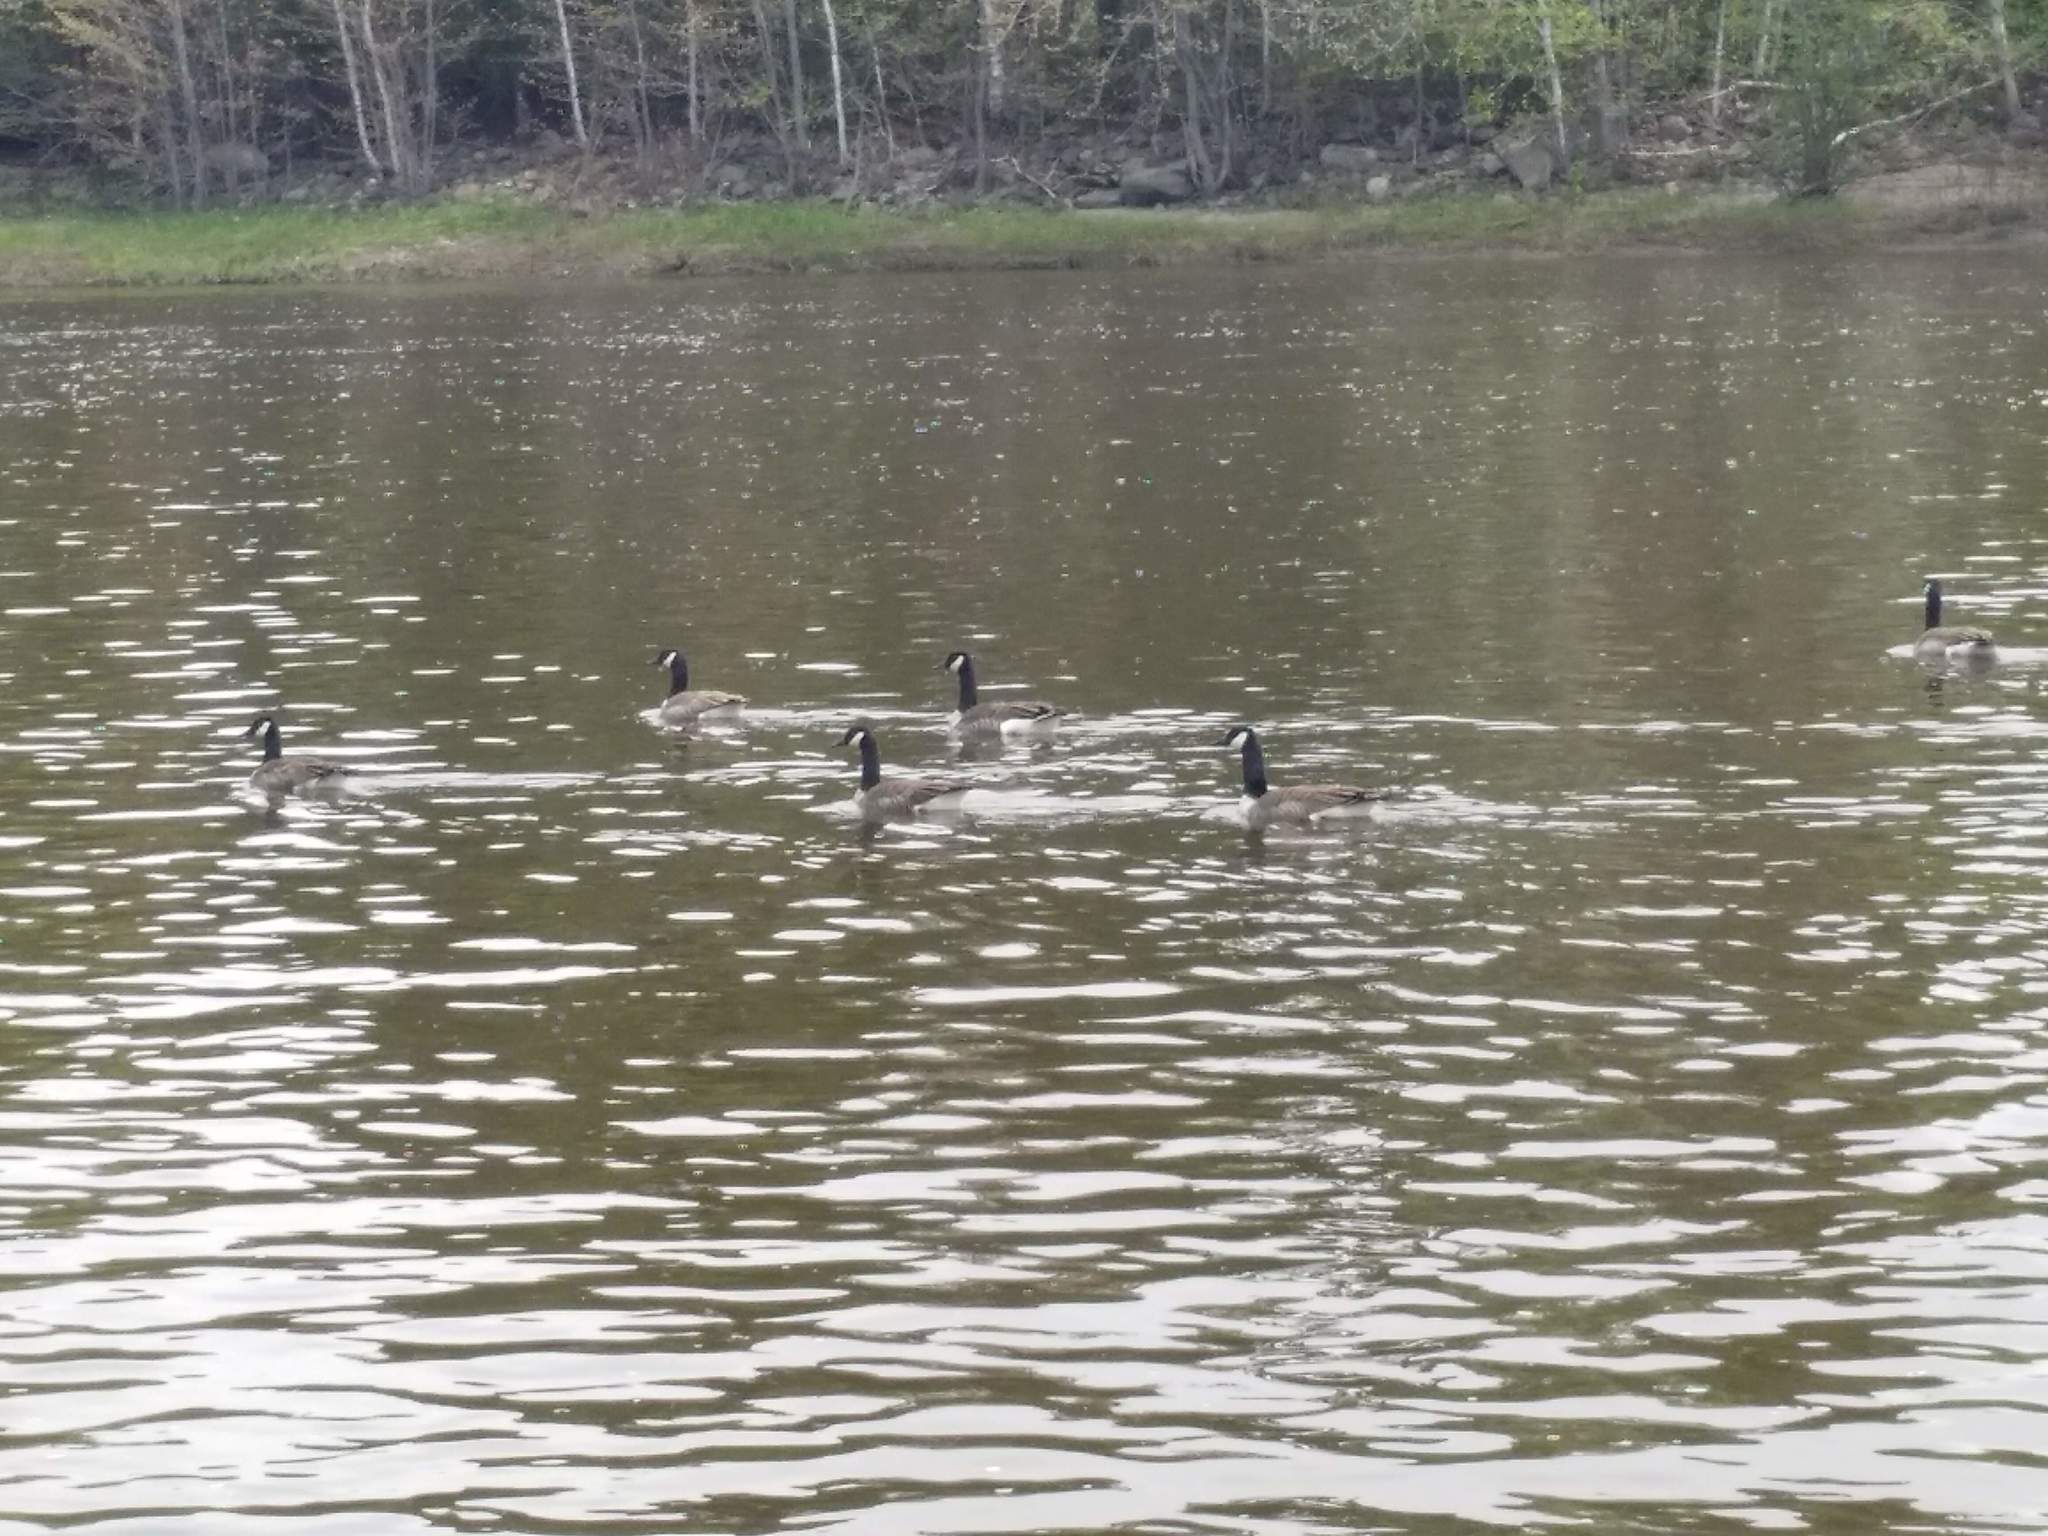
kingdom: Animalia
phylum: Chordata
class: Aves
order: Anseriformes
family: Anatidae
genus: Branta
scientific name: Branta canadensis
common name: Canada goose
